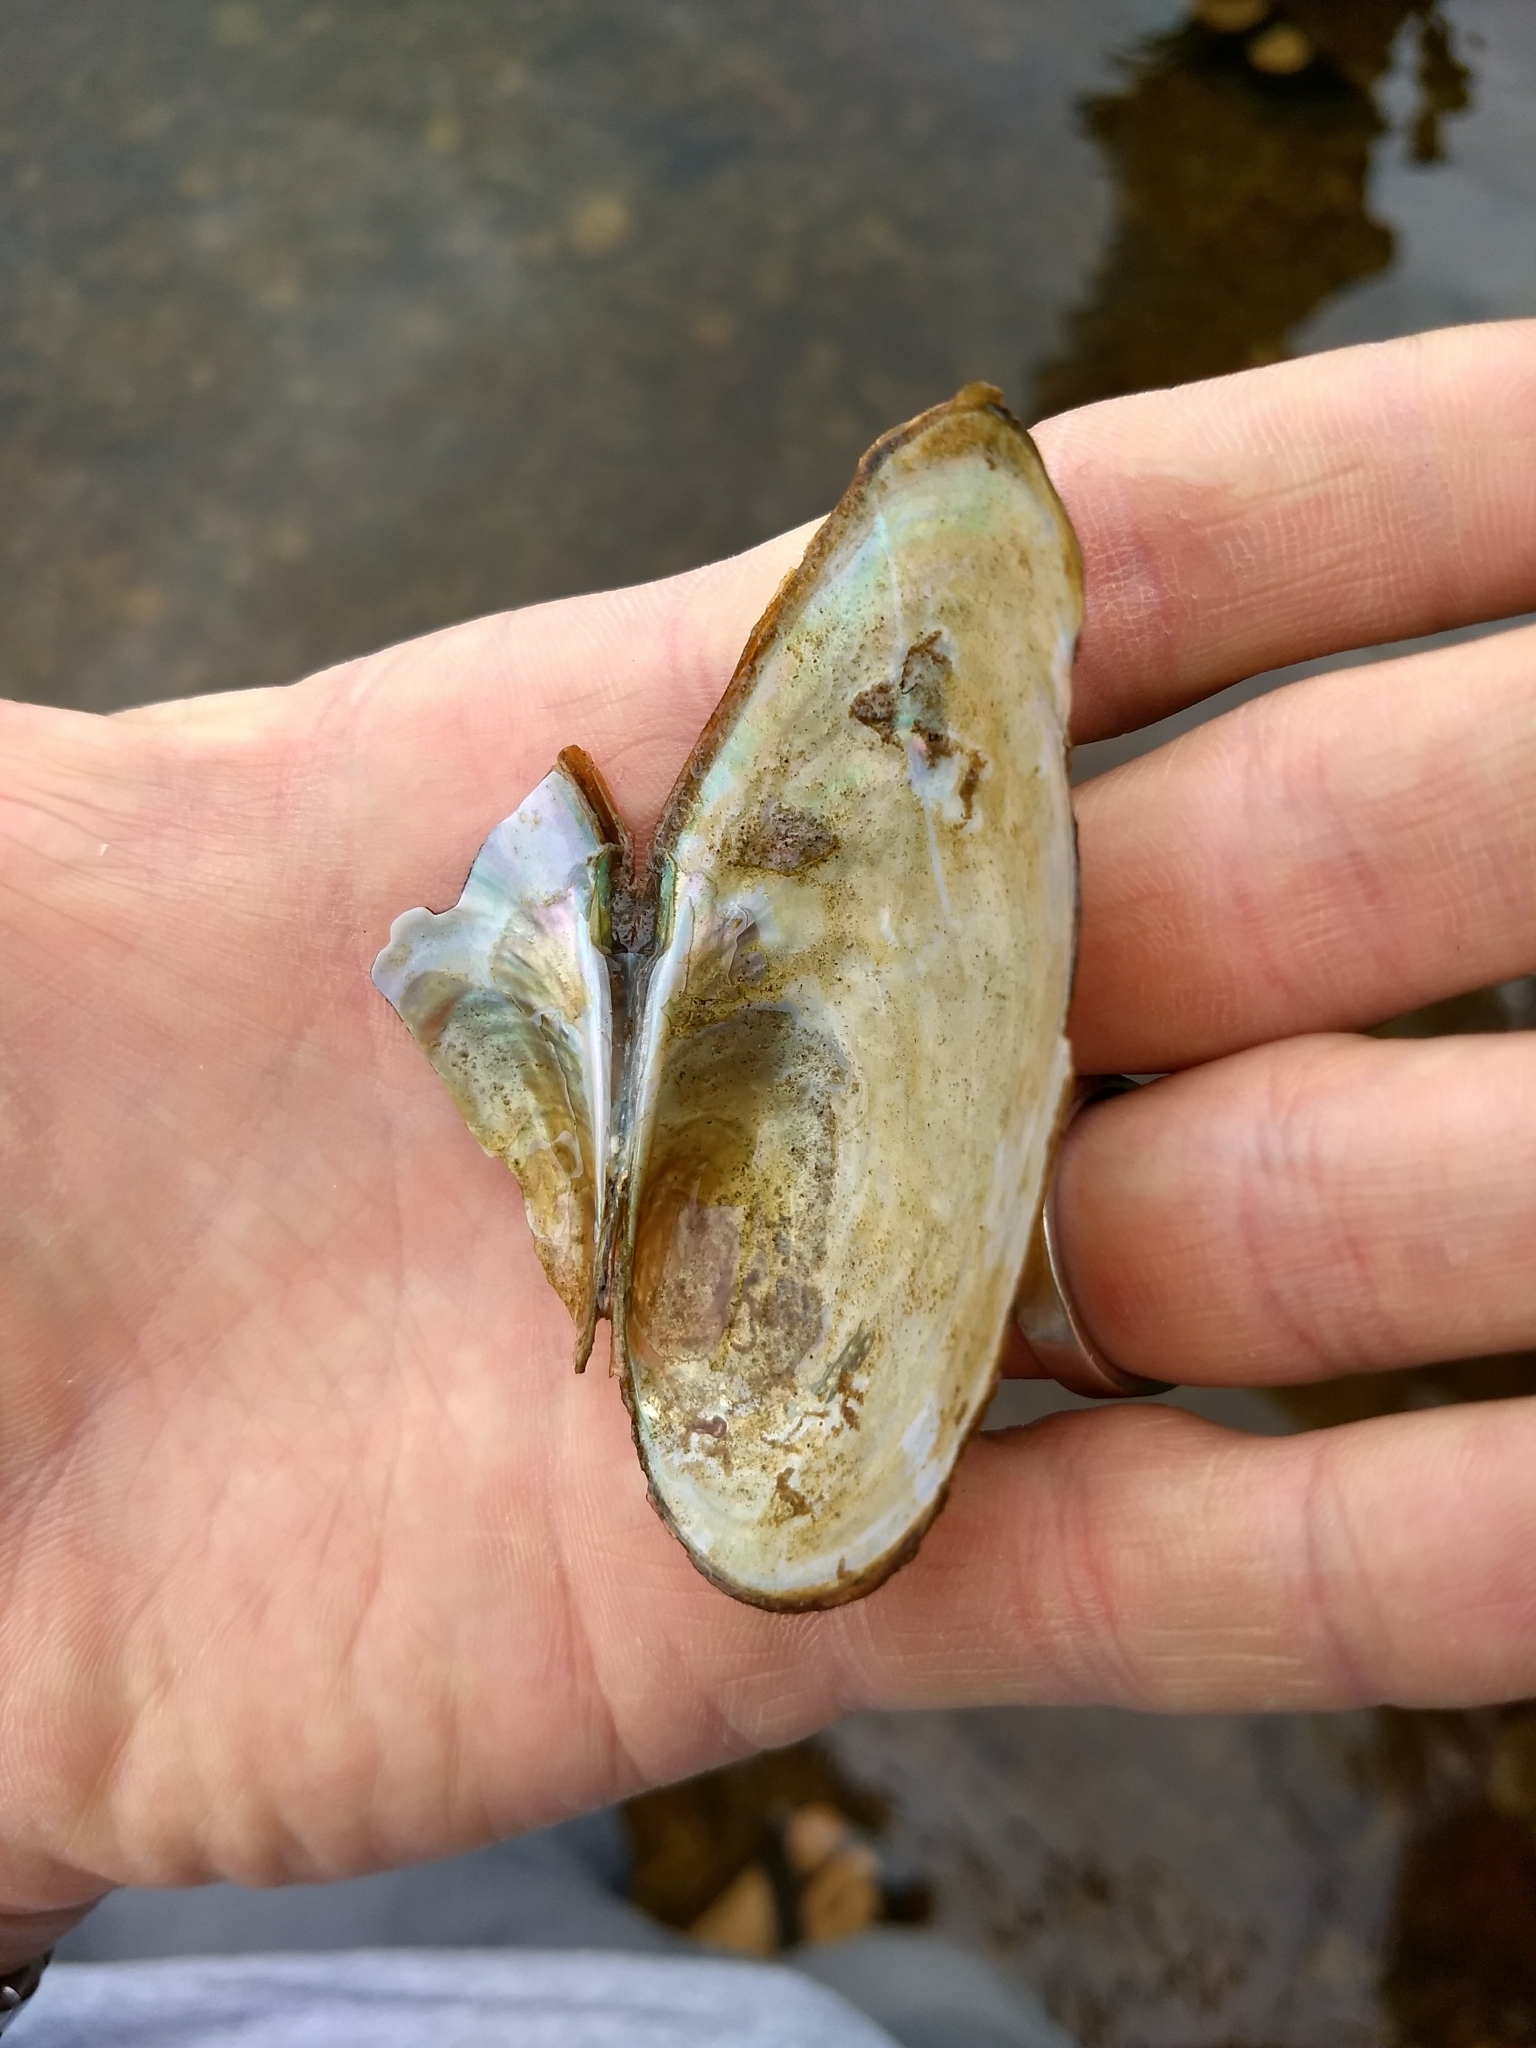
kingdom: Animalia
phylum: Mollusca
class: Bivalvia
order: Unionida
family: Unionidae
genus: Pyganodon
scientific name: Pyganodon cataracta
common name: Eastern floater
